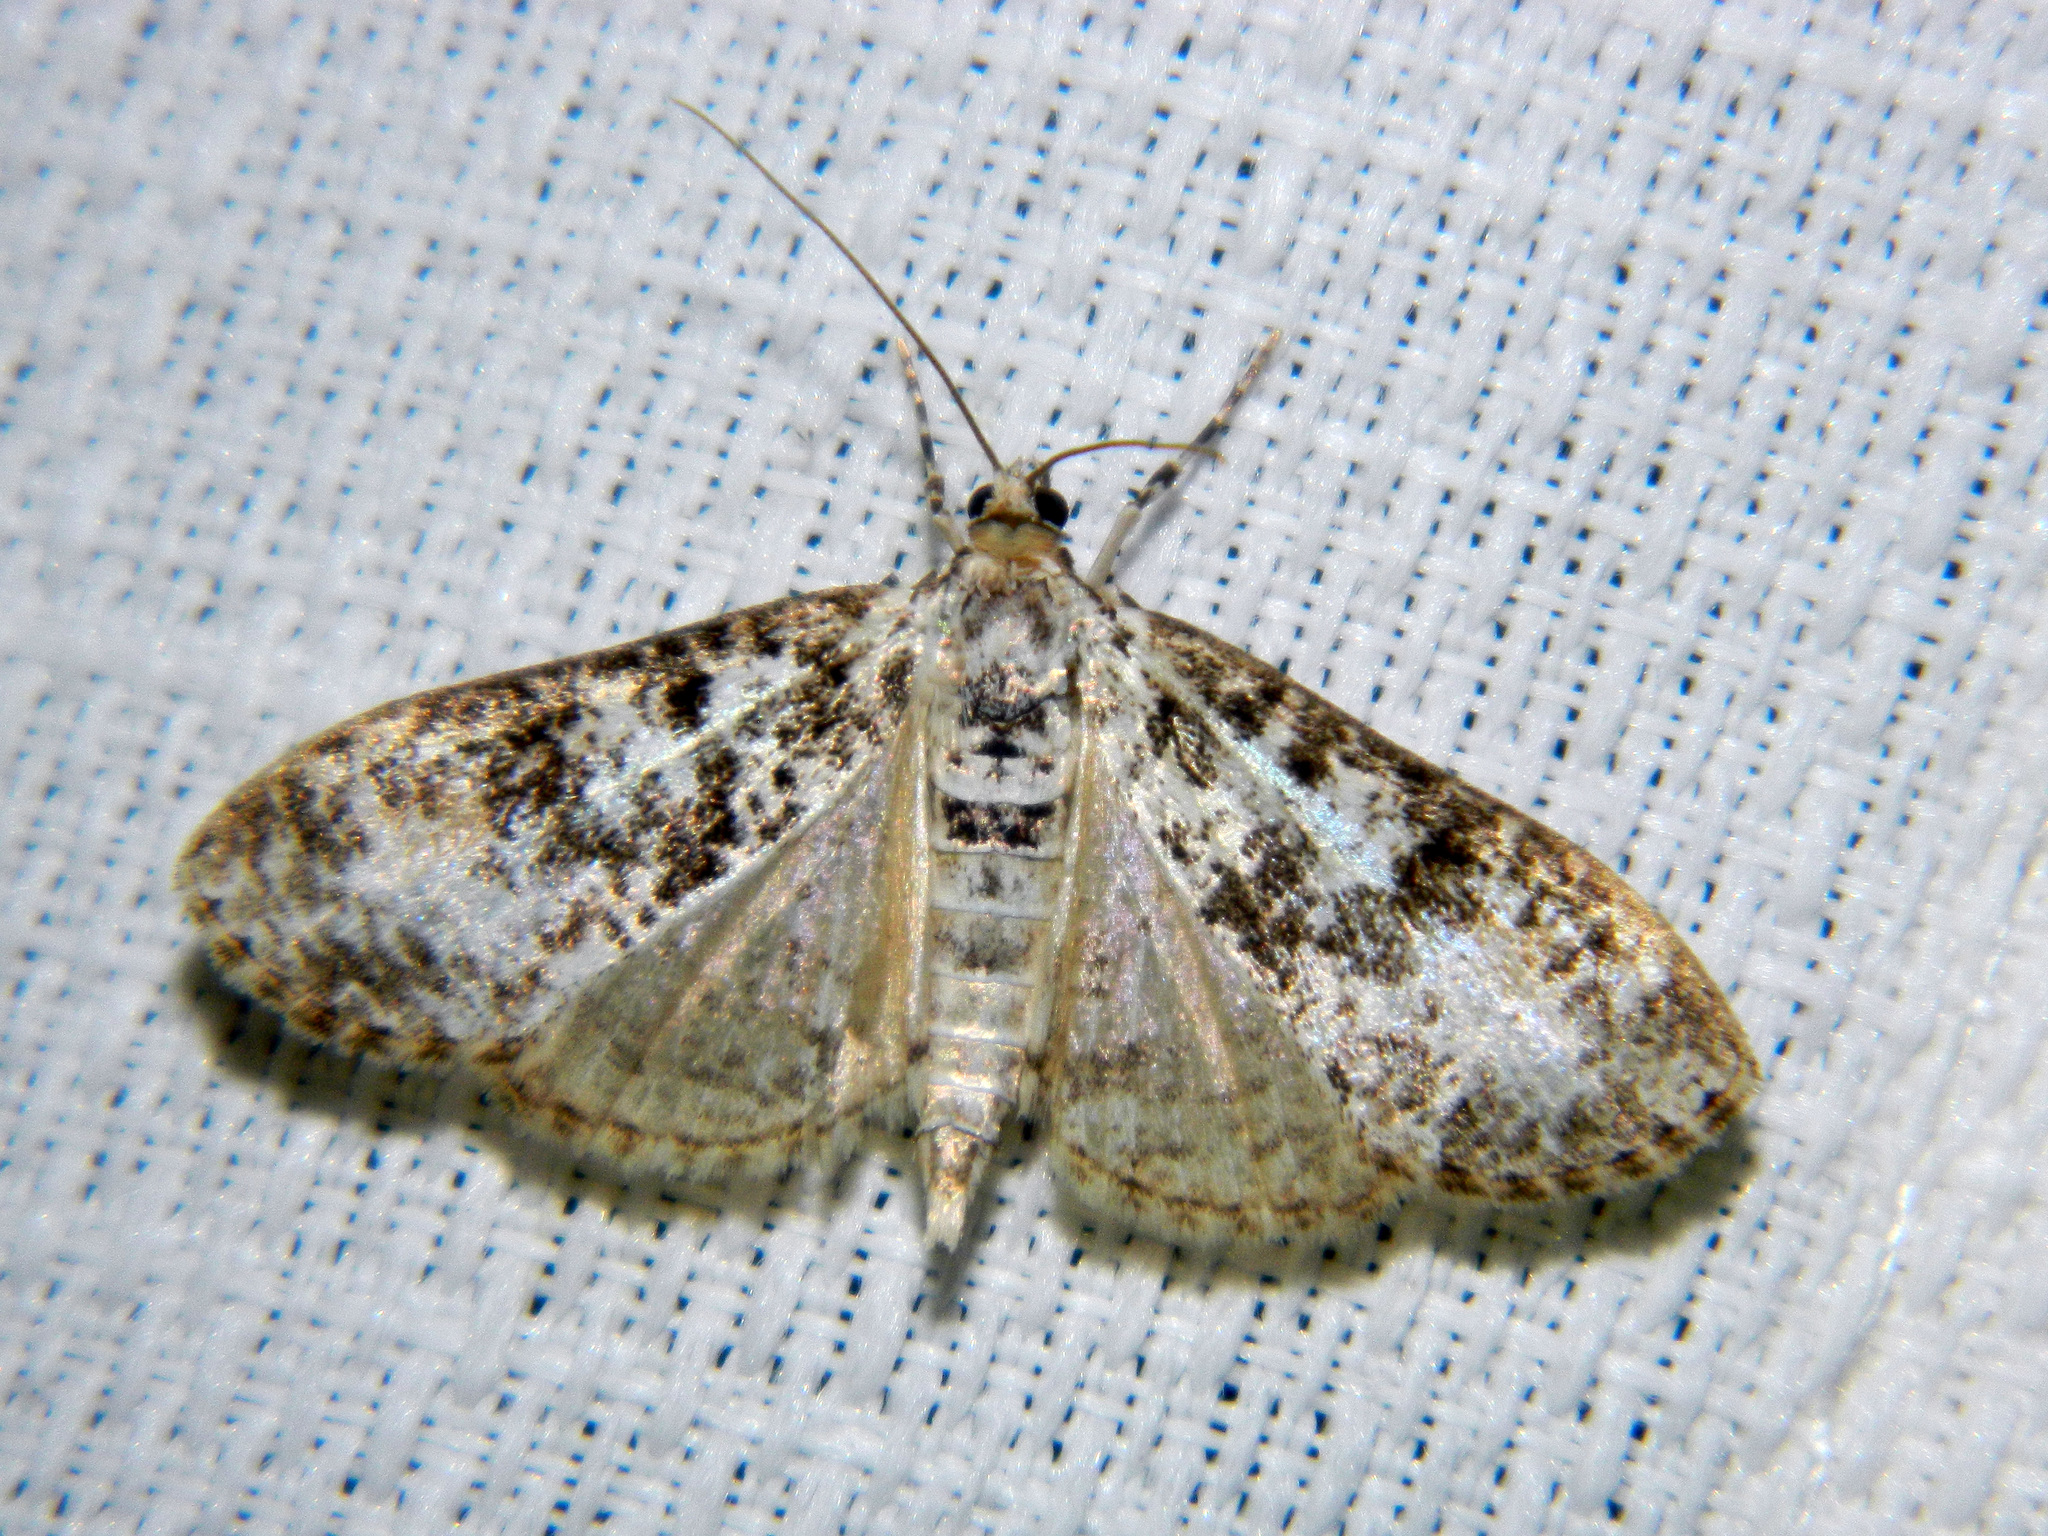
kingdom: Animalia
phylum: Arthropoda
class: Insecta
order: Lepidoptera
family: Crambidae
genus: Palpita
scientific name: Palpita magniferalis
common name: Splendid palpita moth
